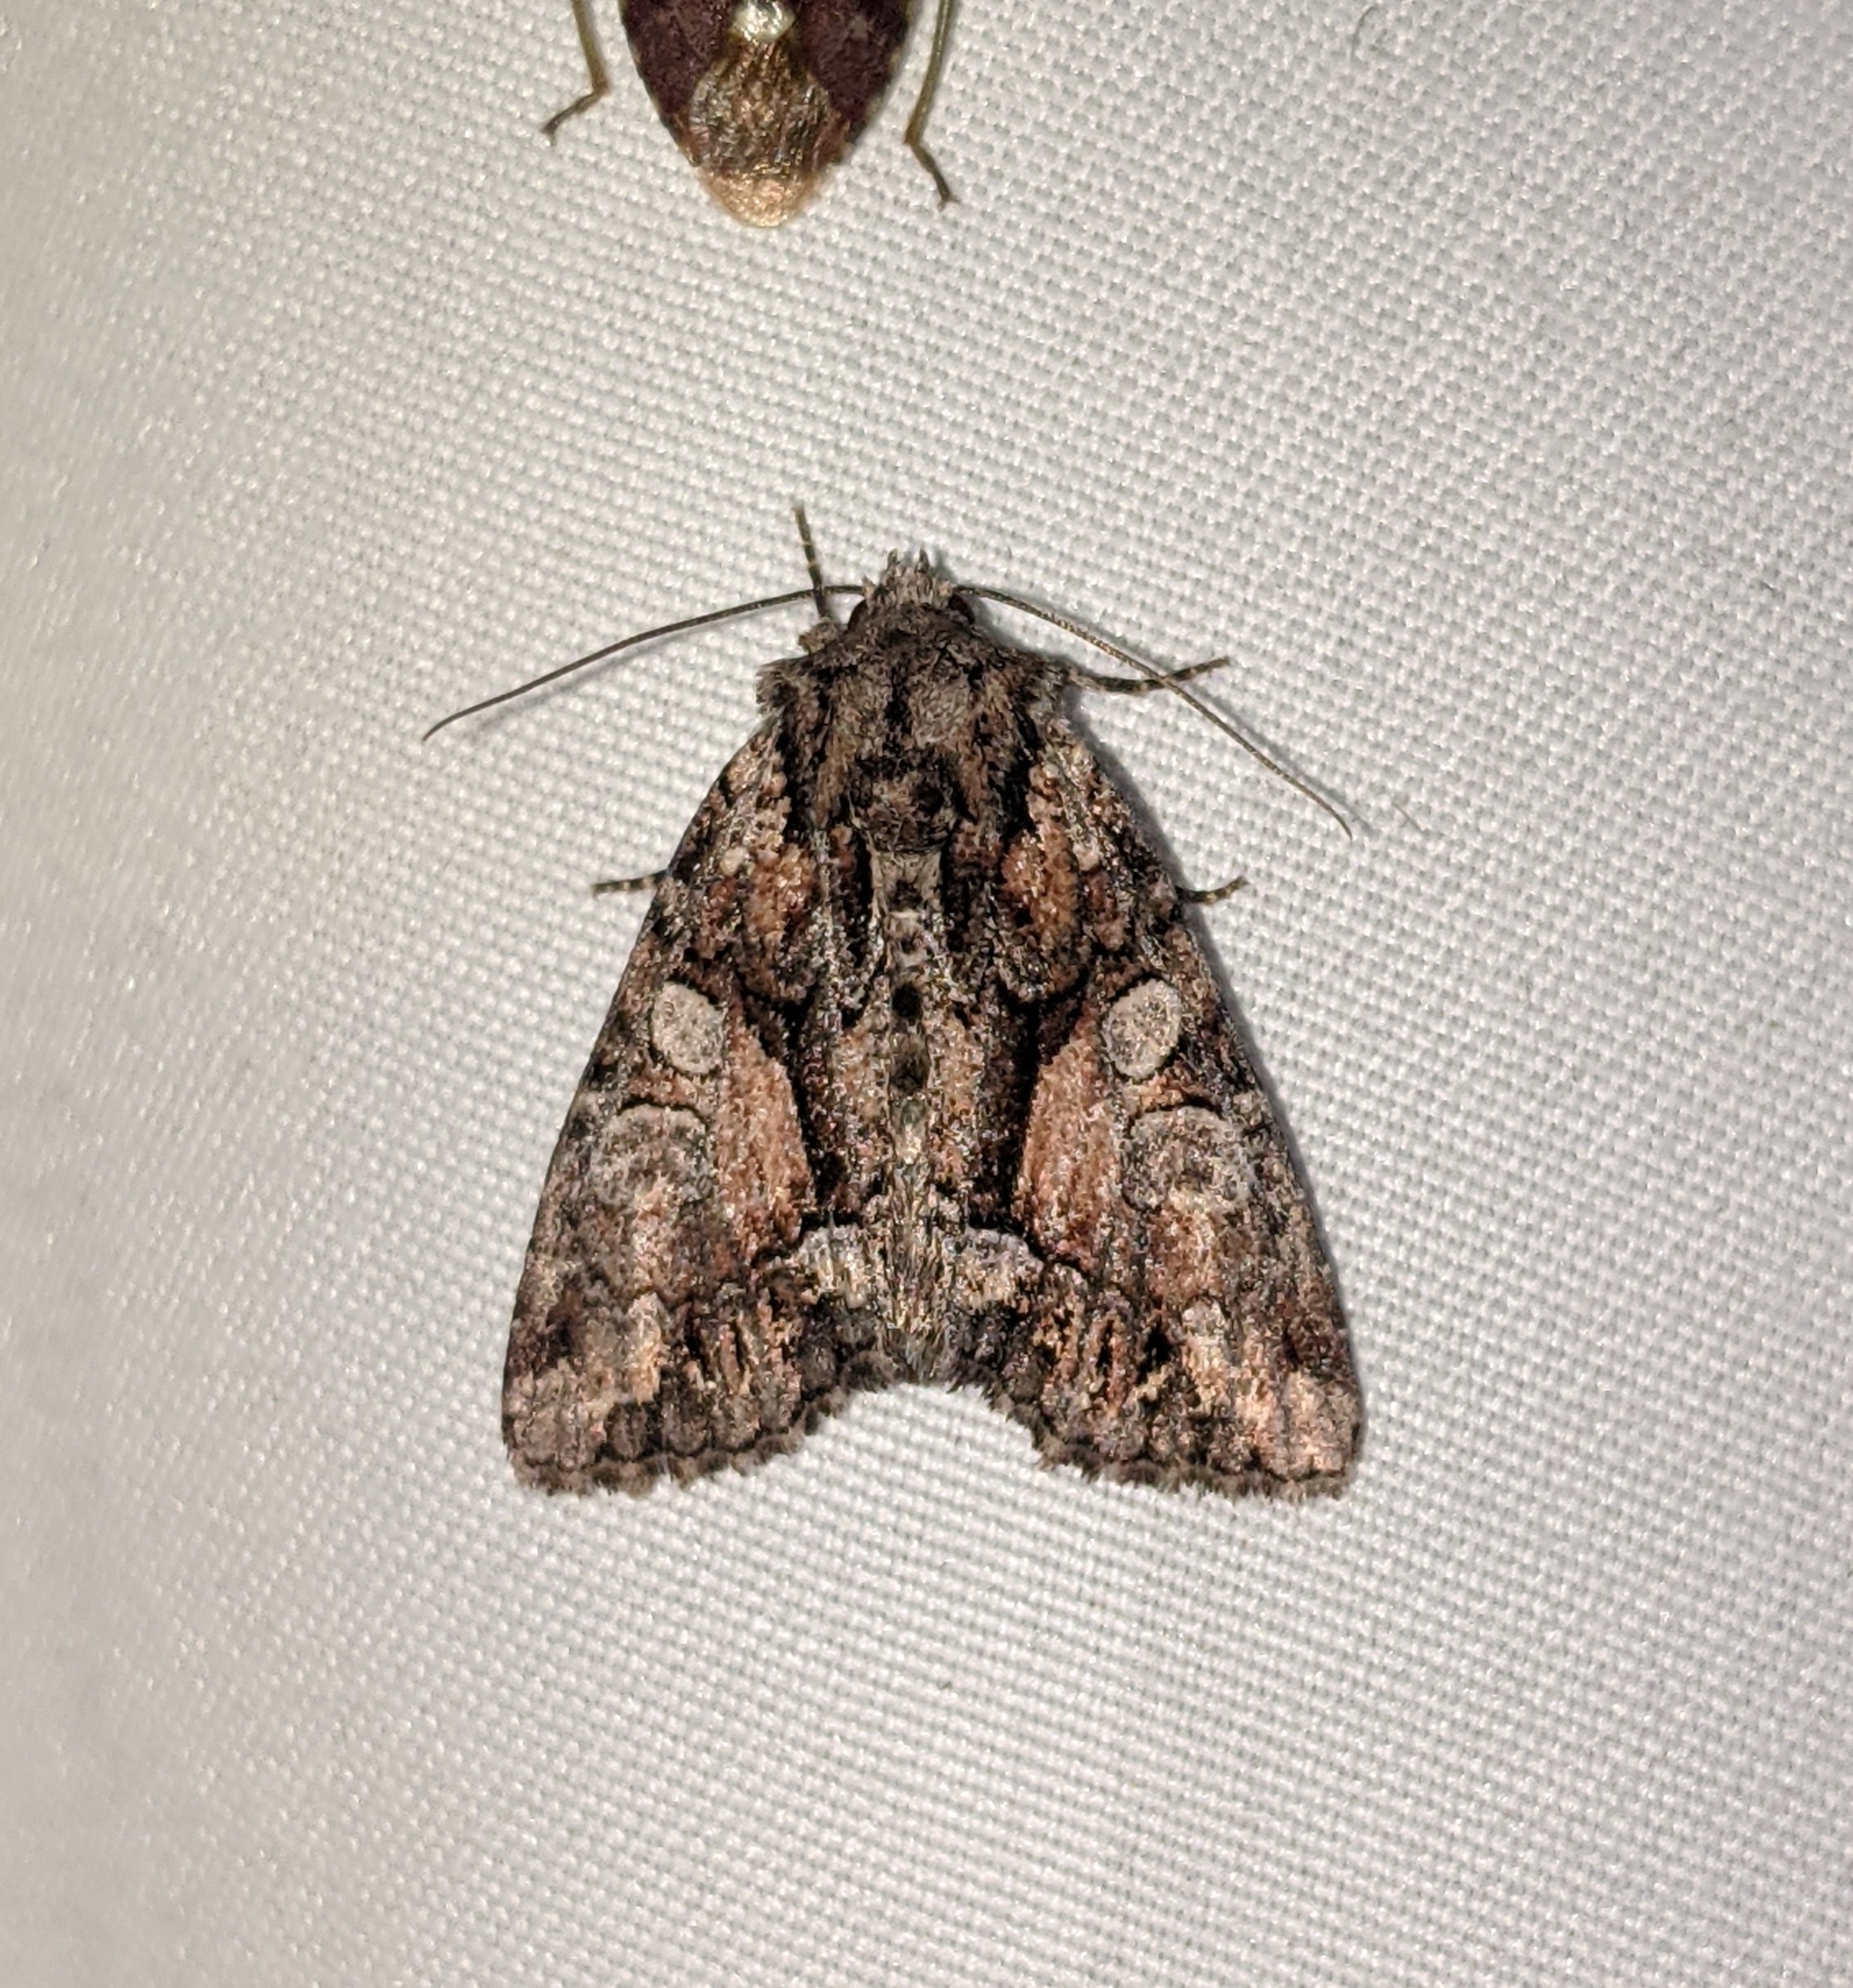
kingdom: Animalia
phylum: Arthropoda
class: Insecta
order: Lepidoptera
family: Noctuidae
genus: Oligia
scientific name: Oligia divesta
